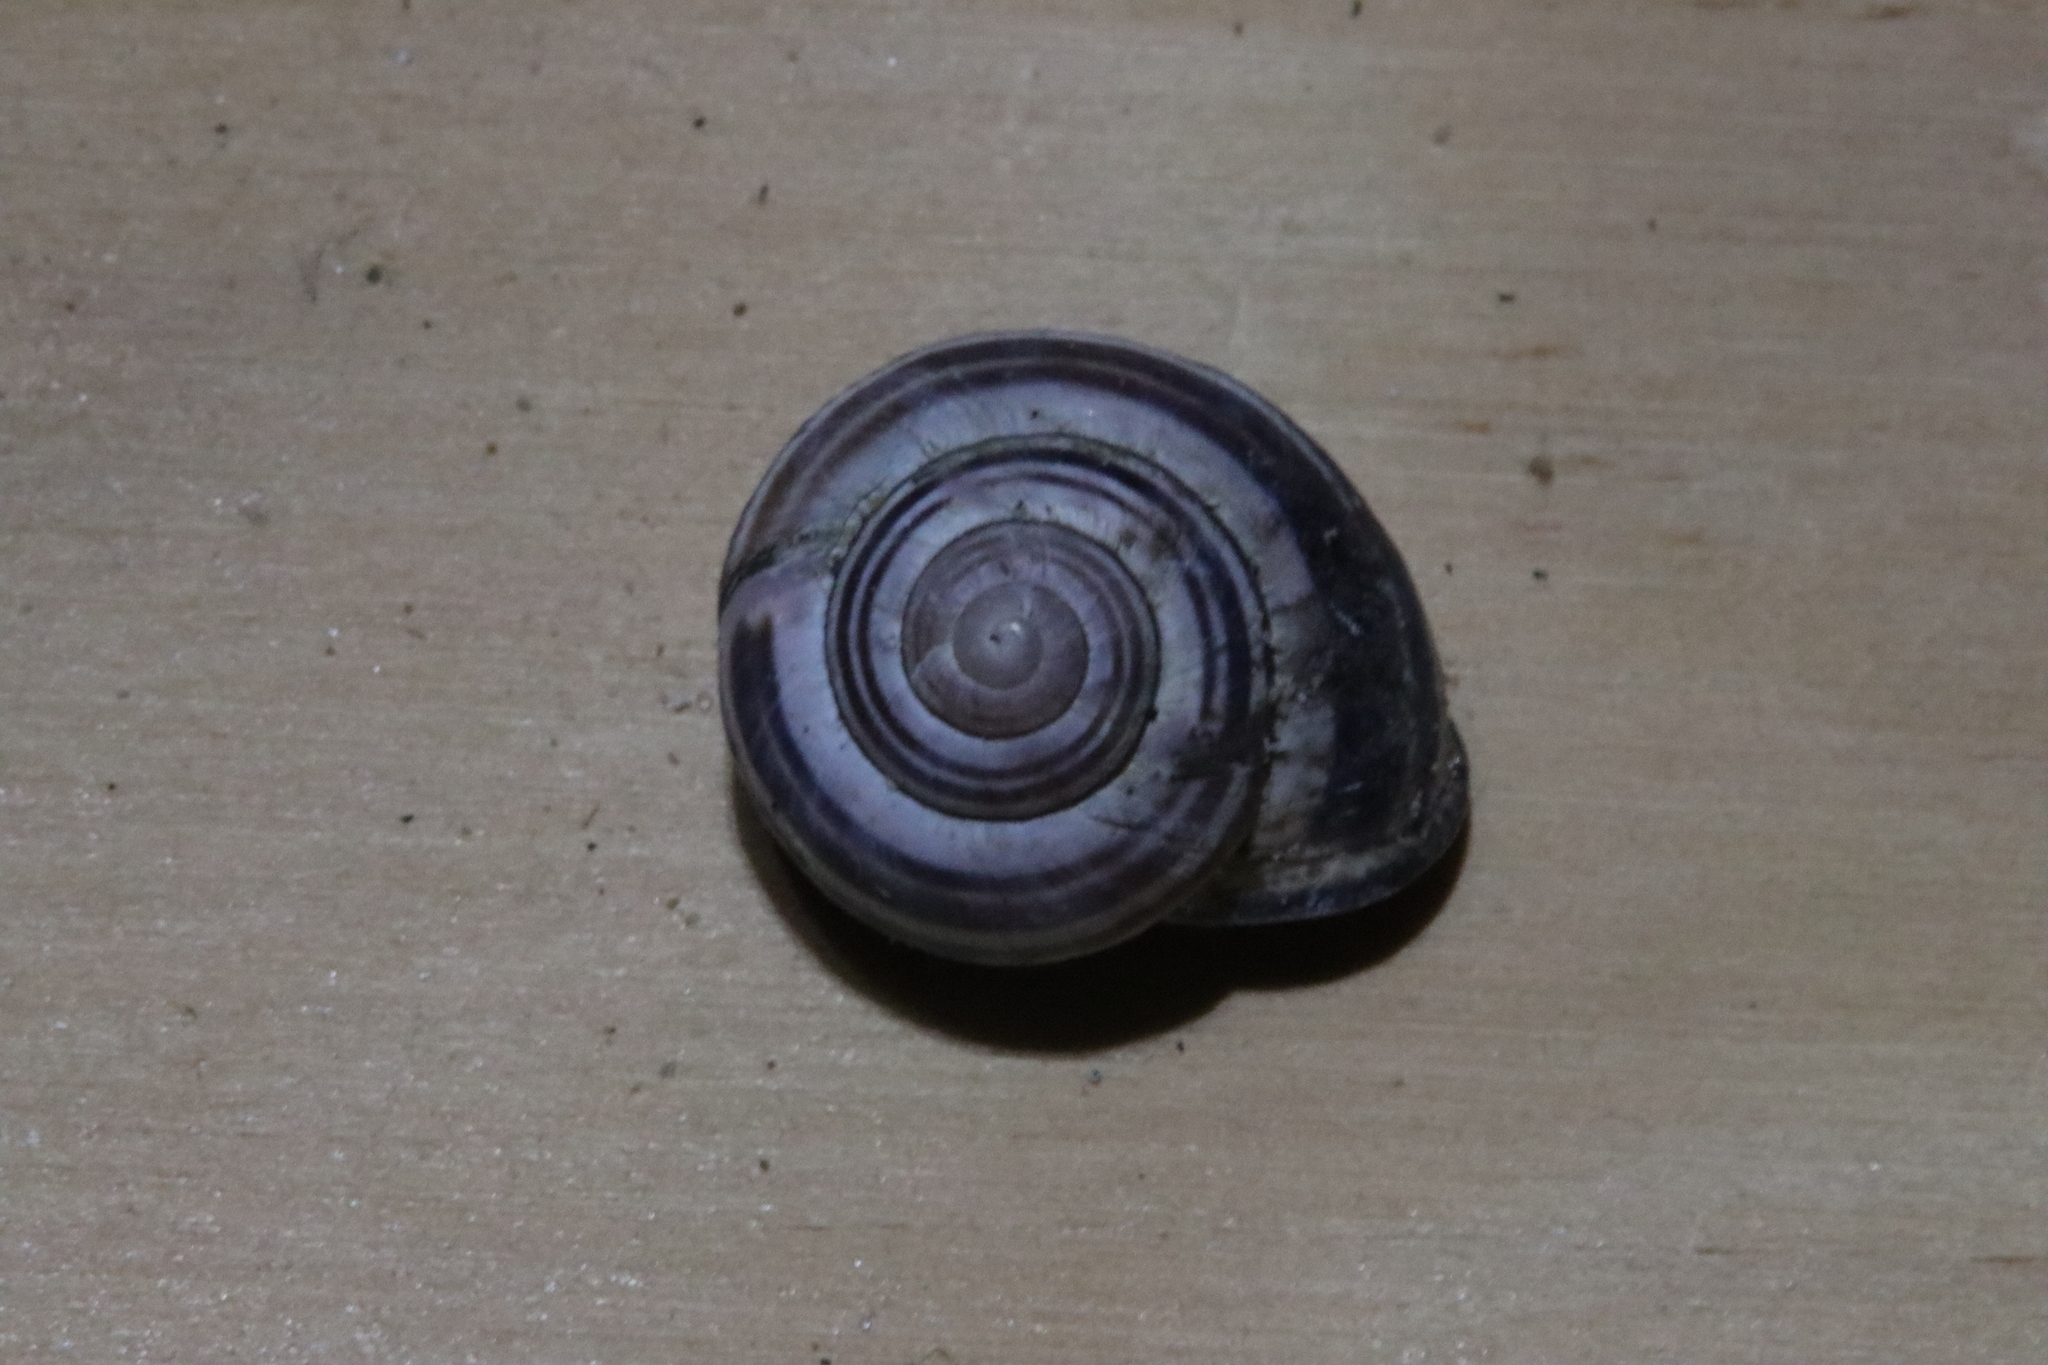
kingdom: Animalia
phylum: Mollusca
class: Gastropoda
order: Stylommatophora
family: Helicidae
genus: Cepaea
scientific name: Cepaea nemoralis
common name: Grovesnail
